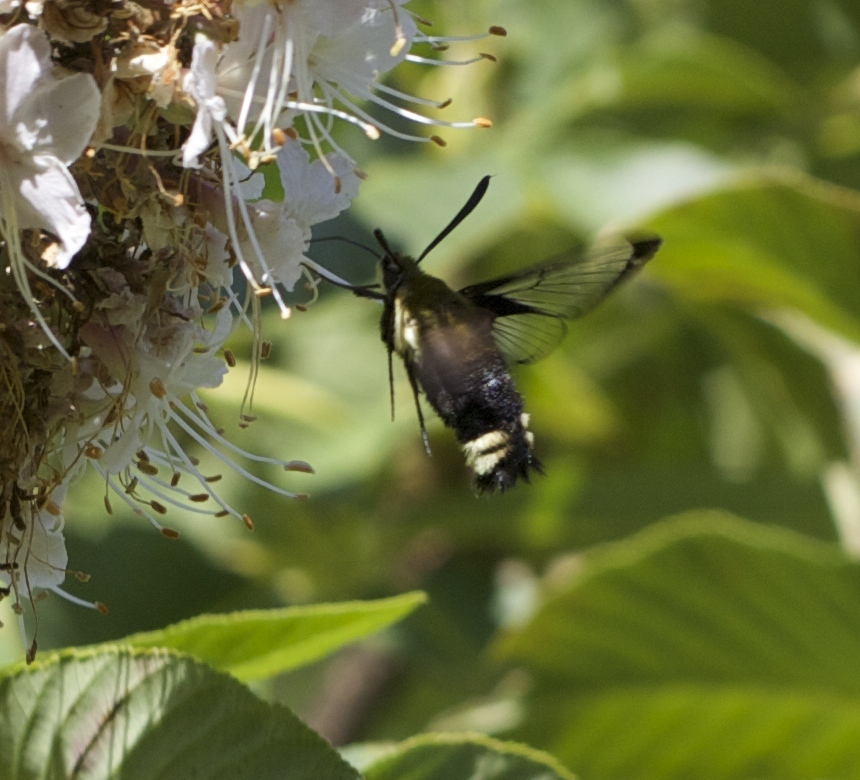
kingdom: Animalia
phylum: Arthropoda
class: Insecta
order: Lepidoptera
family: Sphingidae
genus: Hemaris
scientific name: Hemaris thetis
